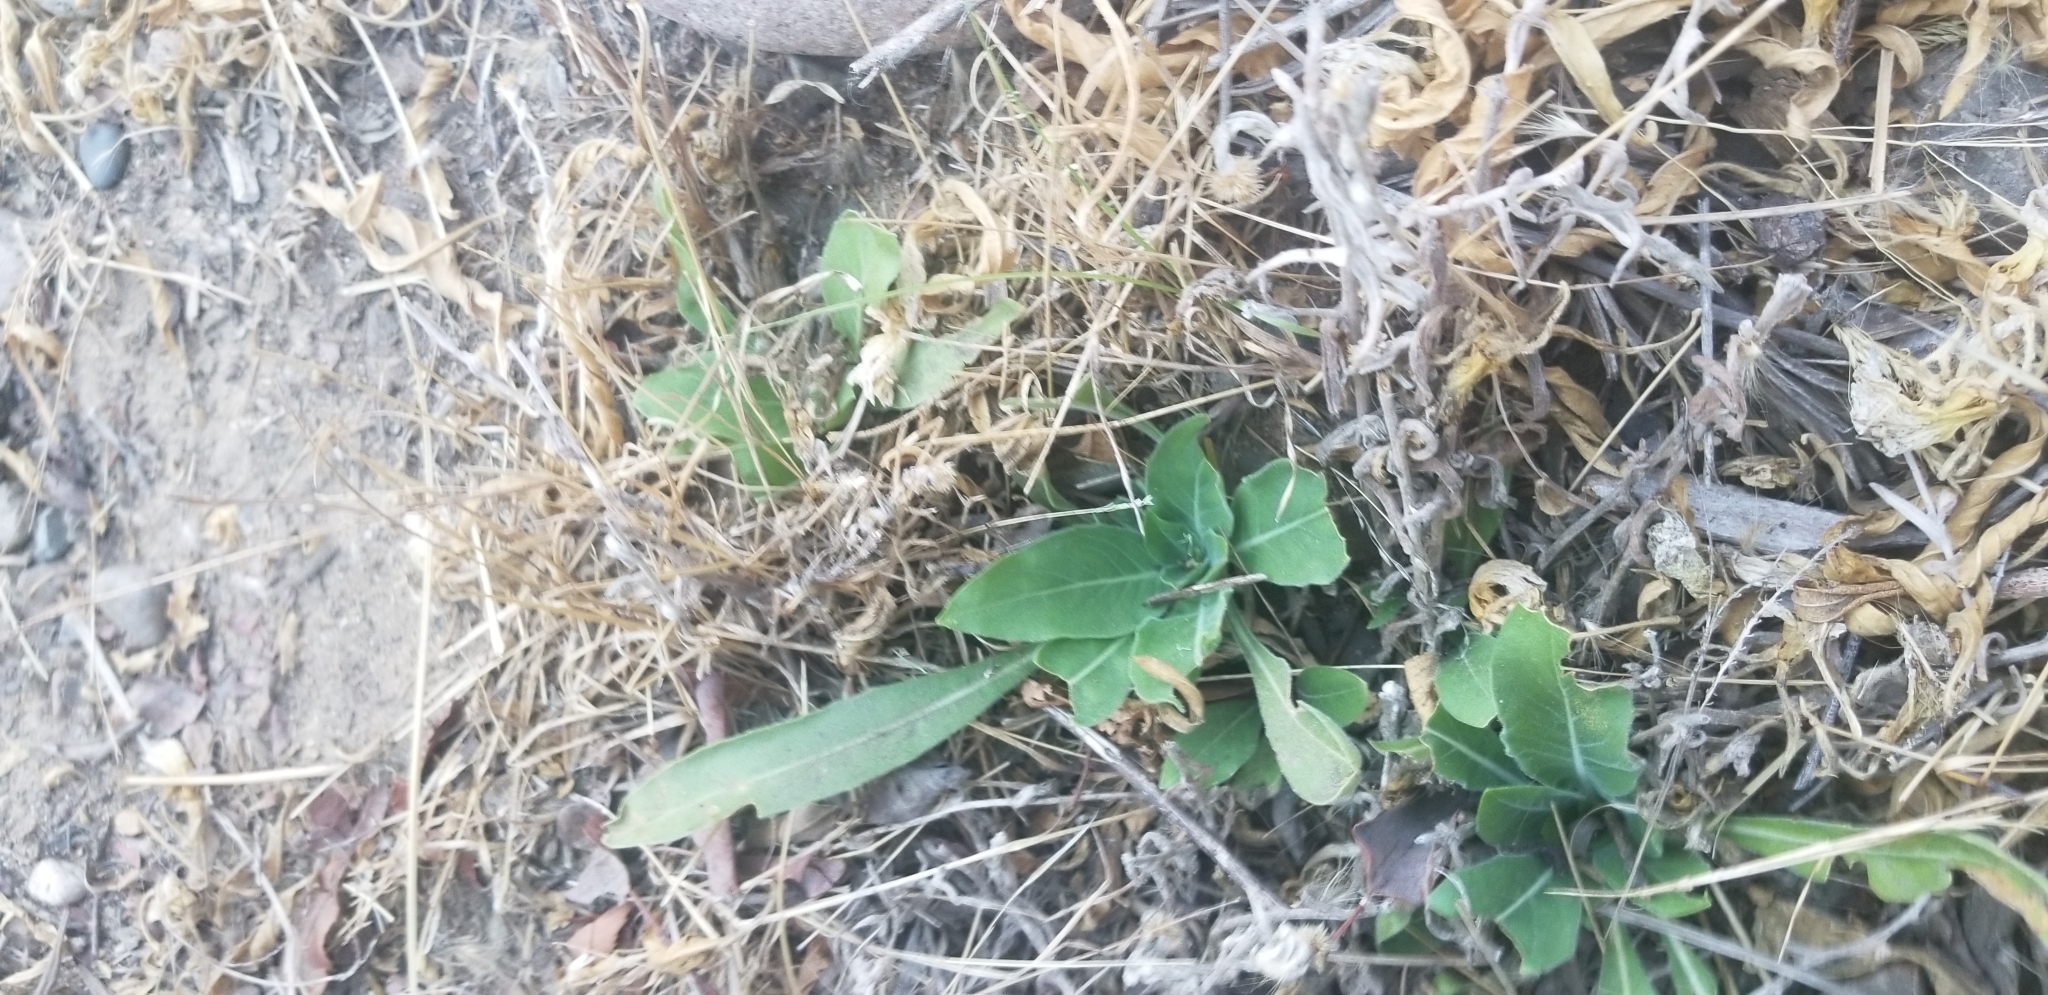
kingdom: Plantae
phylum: Tracheophyta
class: Magnoliopsida
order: Myrtales
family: Onagraceae
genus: Oenothera
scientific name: Oenothera elata
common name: Hooker's evening-primrose
